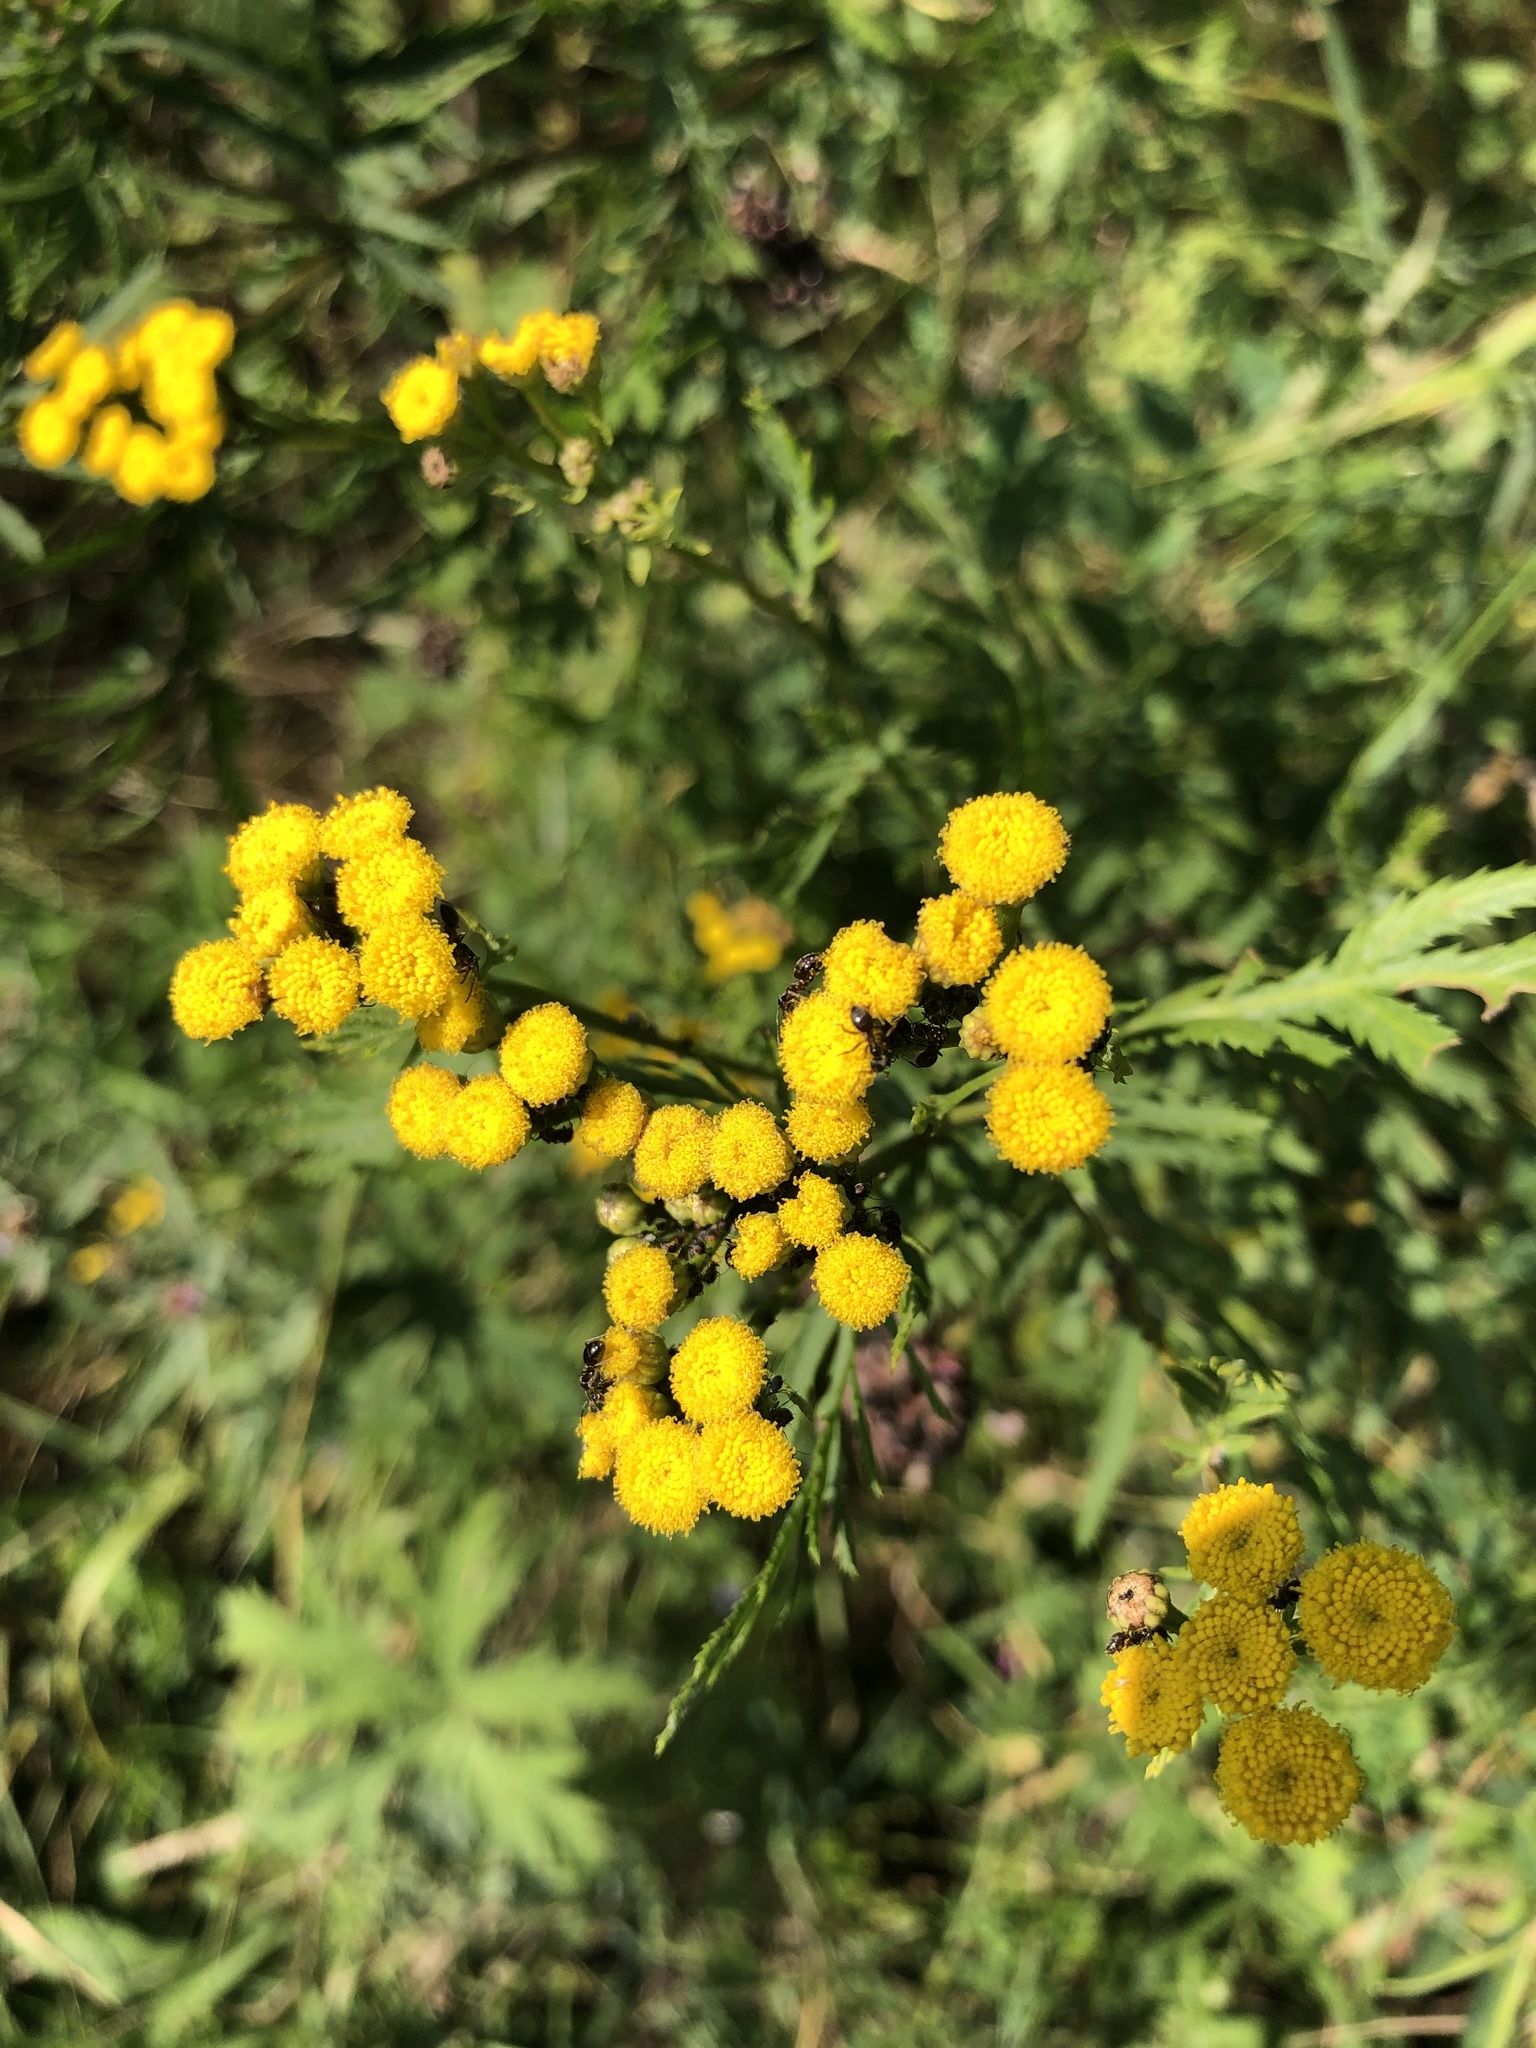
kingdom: Plantae
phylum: Tracheophyta
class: Magnoliopsida
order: Asterales
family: Asteraceae
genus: Tanacetum
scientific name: Tanacetum vulgare
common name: Common tansy
